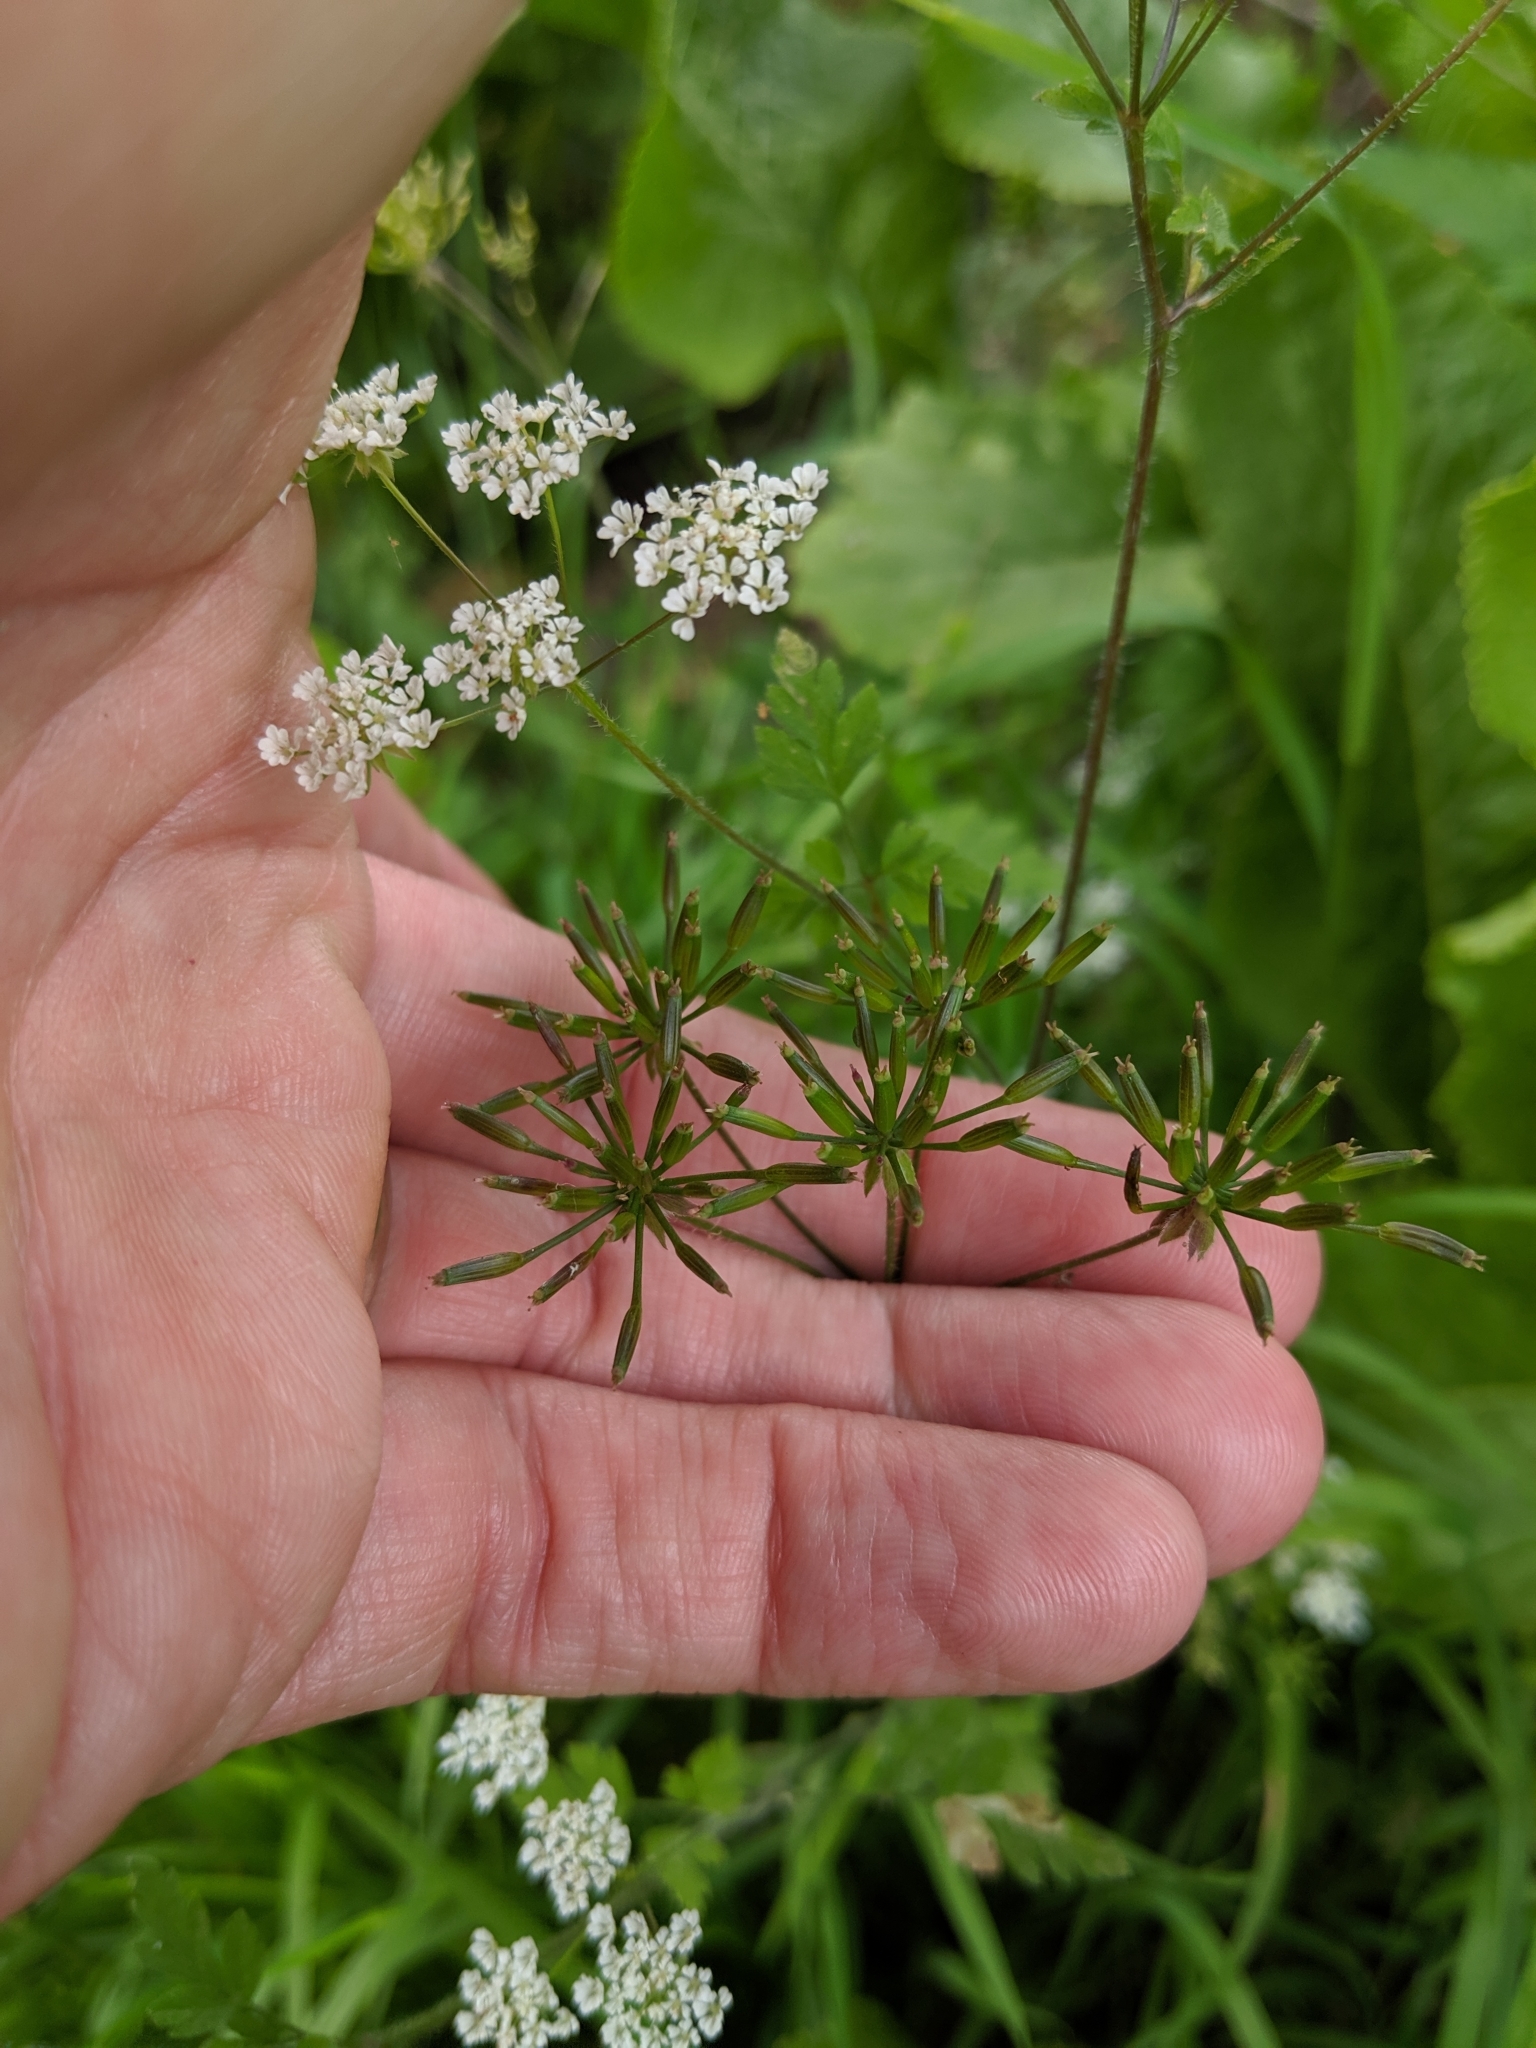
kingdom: Plantae
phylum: Tracheophyta
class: Magnoliopsida
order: Apiales
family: Apiaceae
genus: Chaerophyllum
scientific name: Chaerophyllum temulum
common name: Rough chervil
